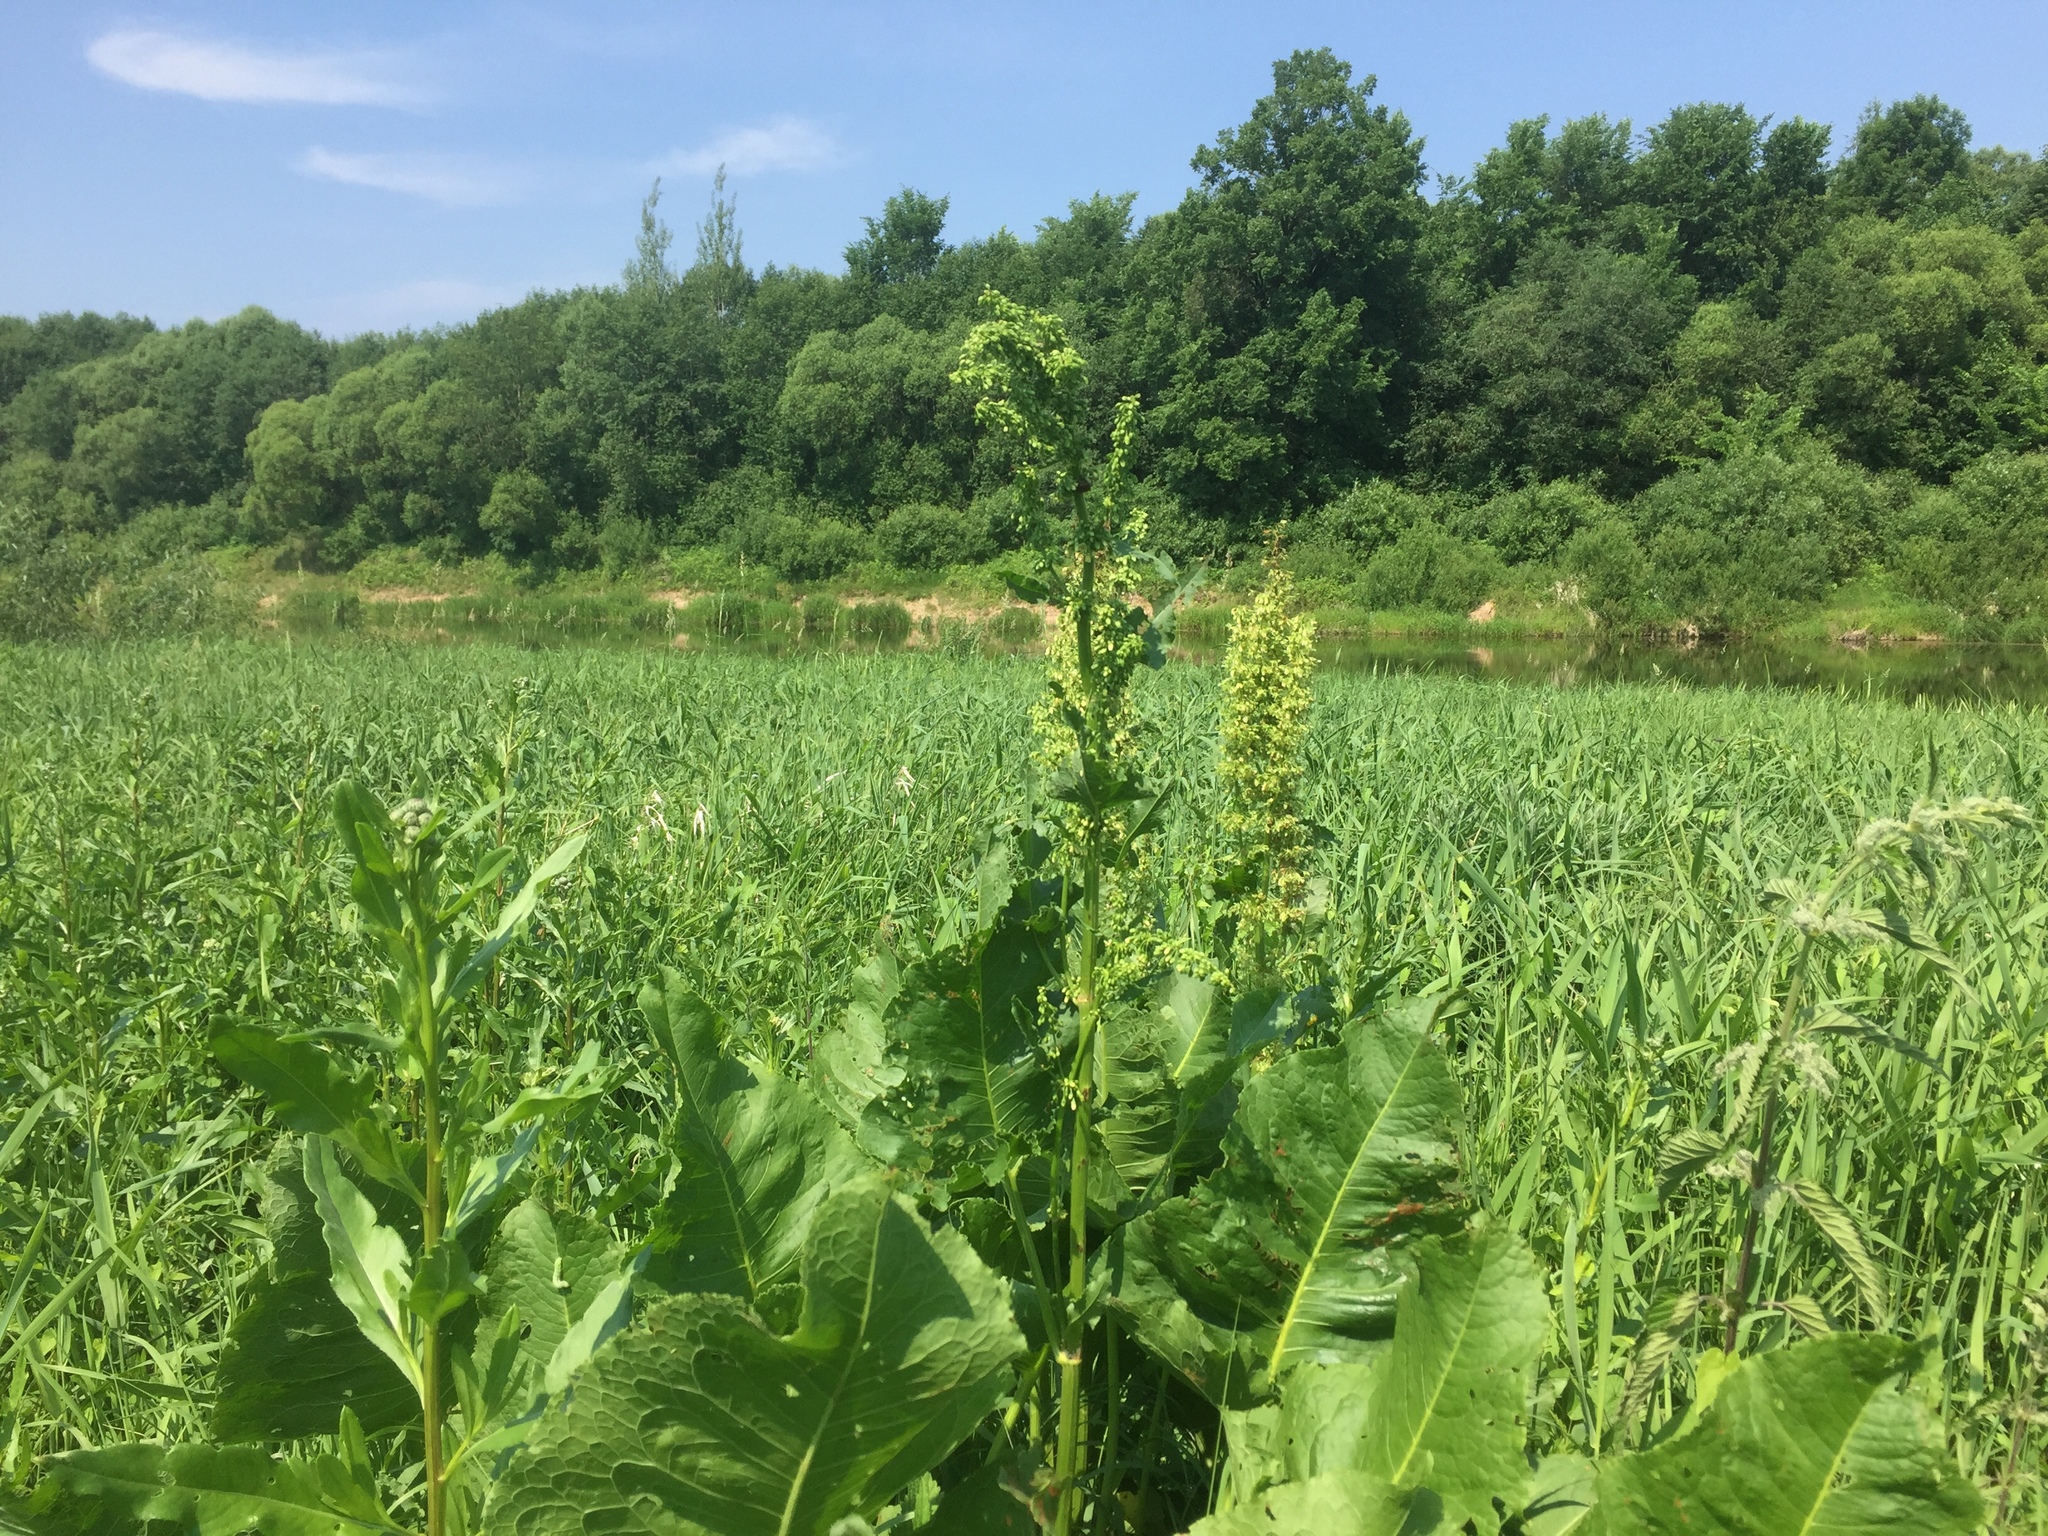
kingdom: Plantae
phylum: Tracheophyta
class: Magnoliopsida
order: Caryophyllales
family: Polygonaceae
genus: Rumex
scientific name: Rumex confertus
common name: Russian dock
